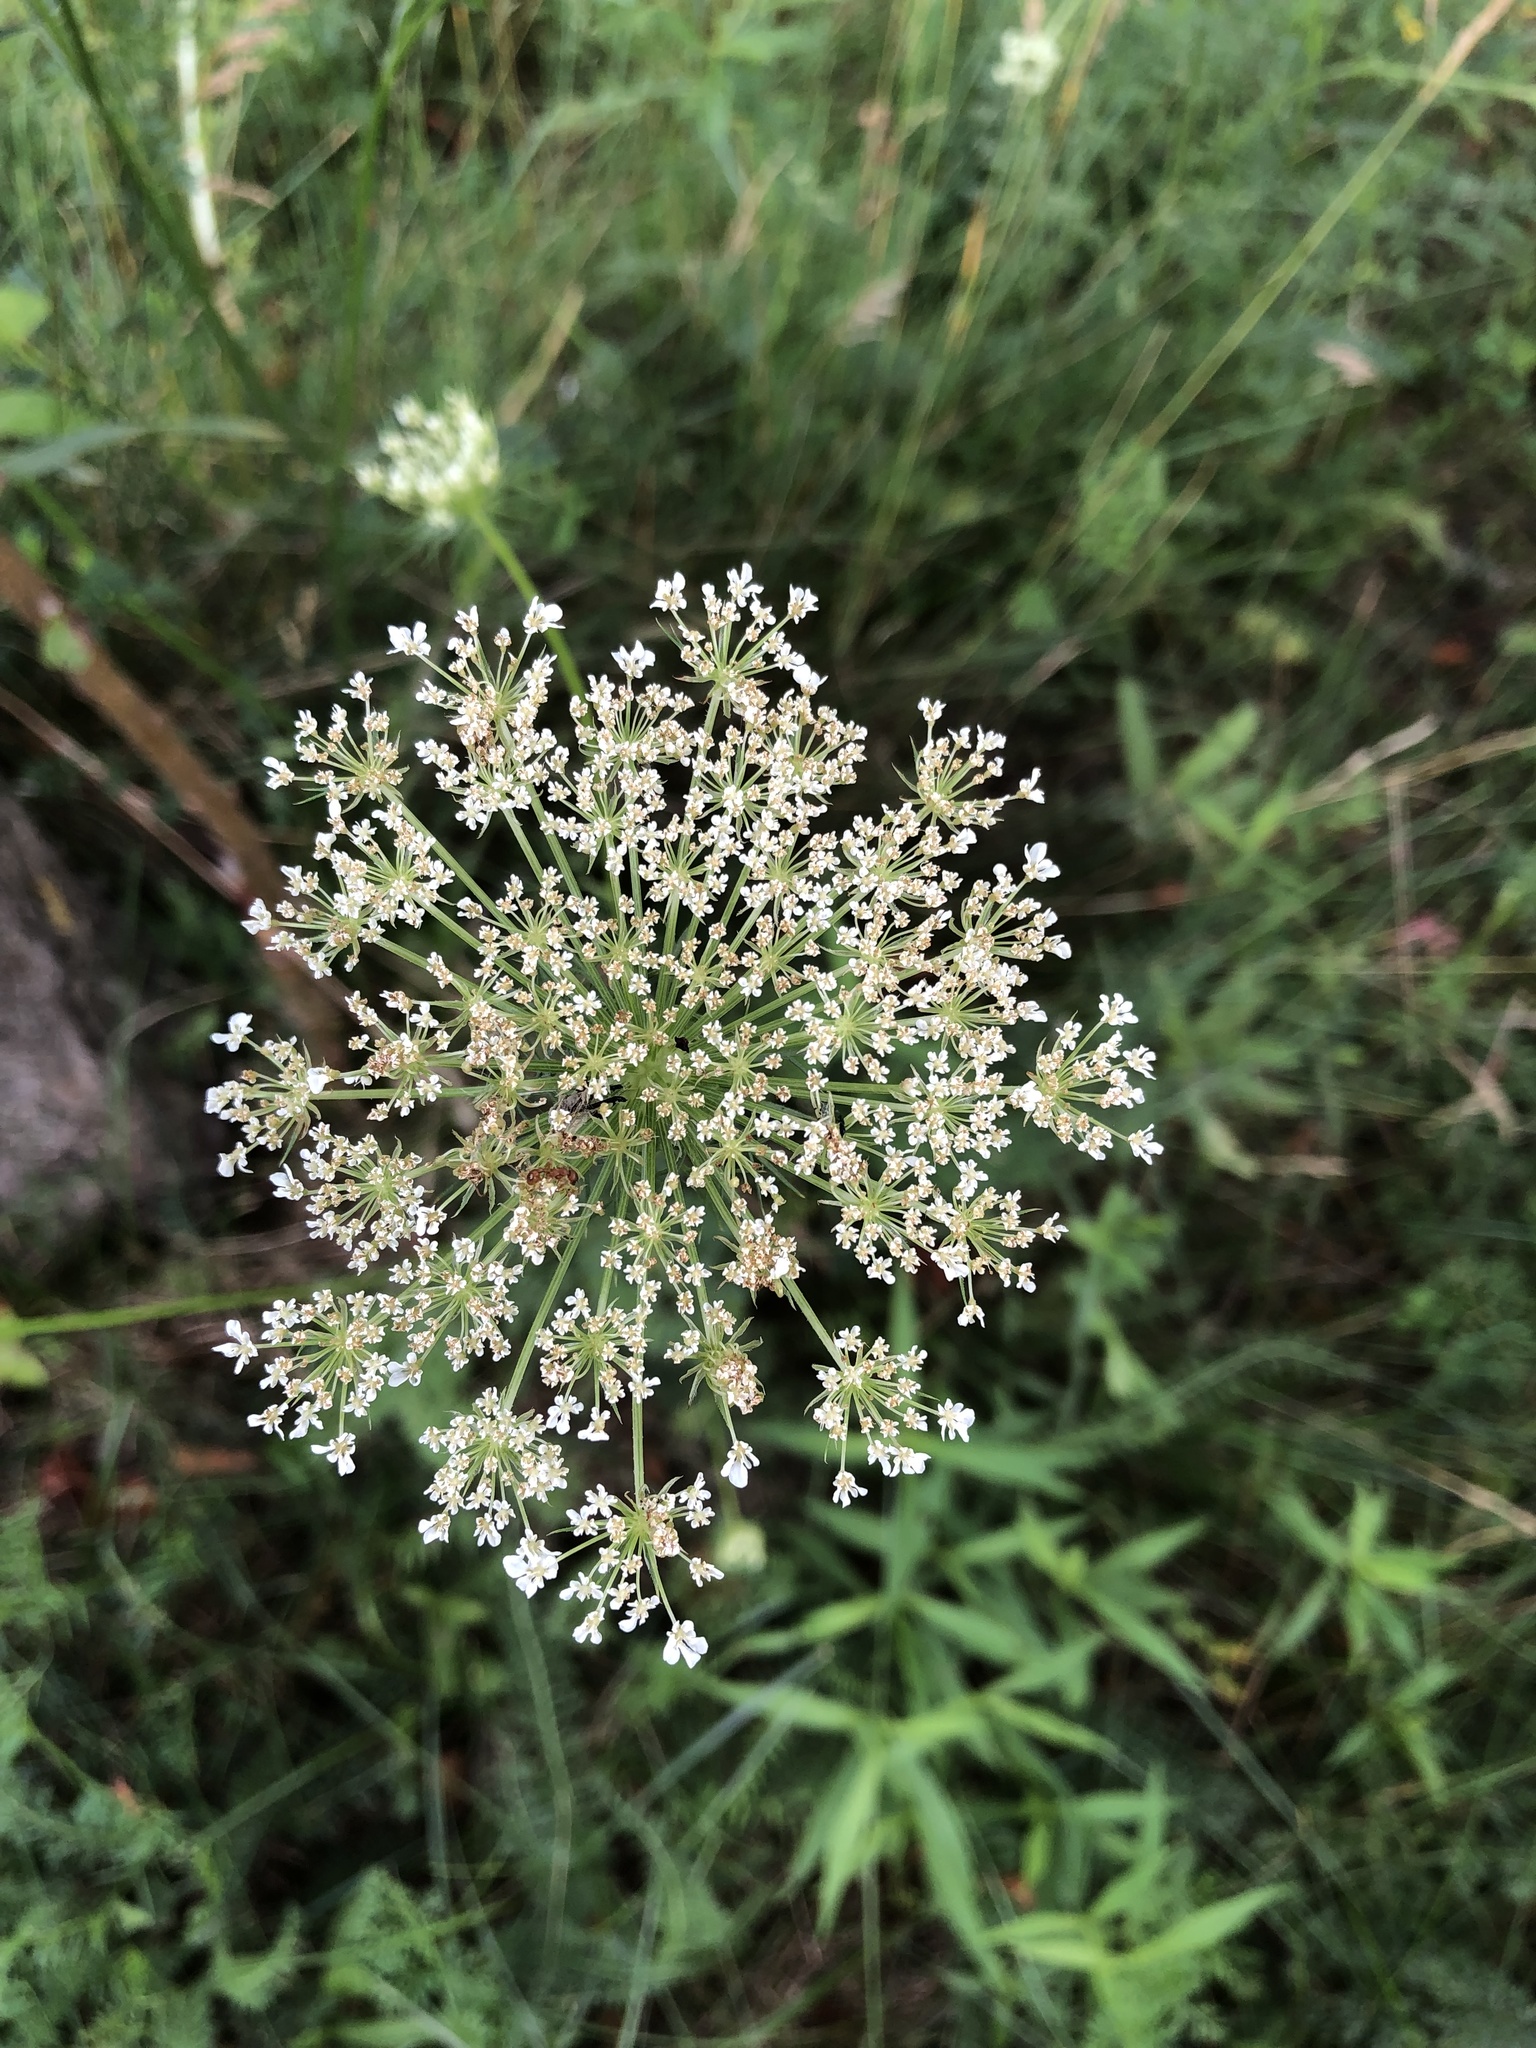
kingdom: Plantae
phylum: Tracheophyta
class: Magnoliopsida
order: Apiales
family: Apiaceae
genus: Daucus
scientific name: Daucus carota
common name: Wild carrot
